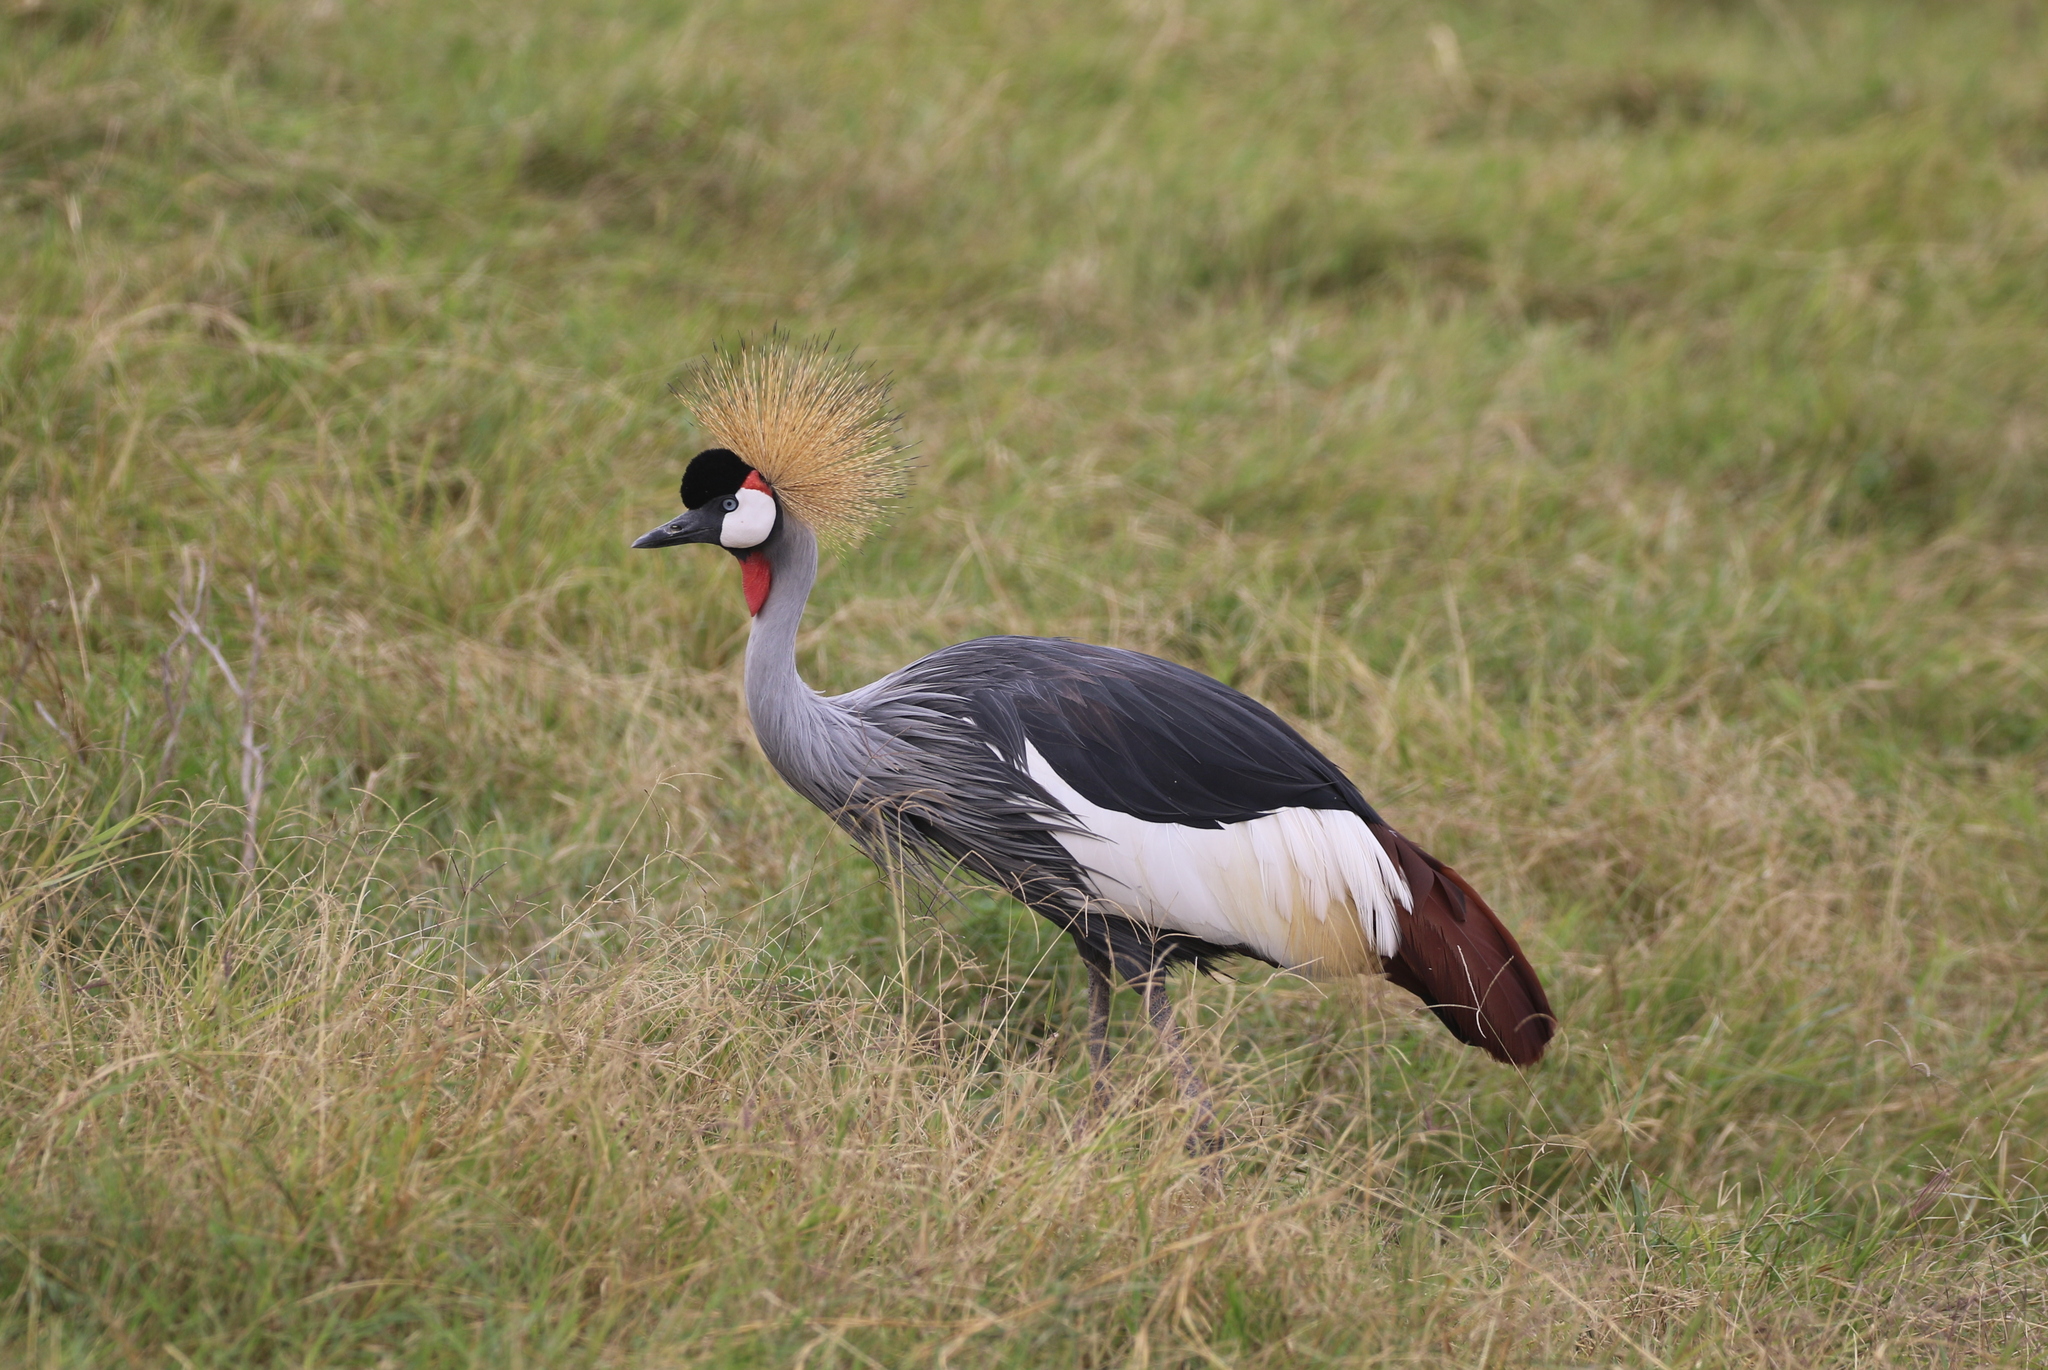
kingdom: Animalia
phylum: Chordata
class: Aves
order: Gruiformes
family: Gruidae
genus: Balearica
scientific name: Balearica regulorum
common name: Grey crowned crane
